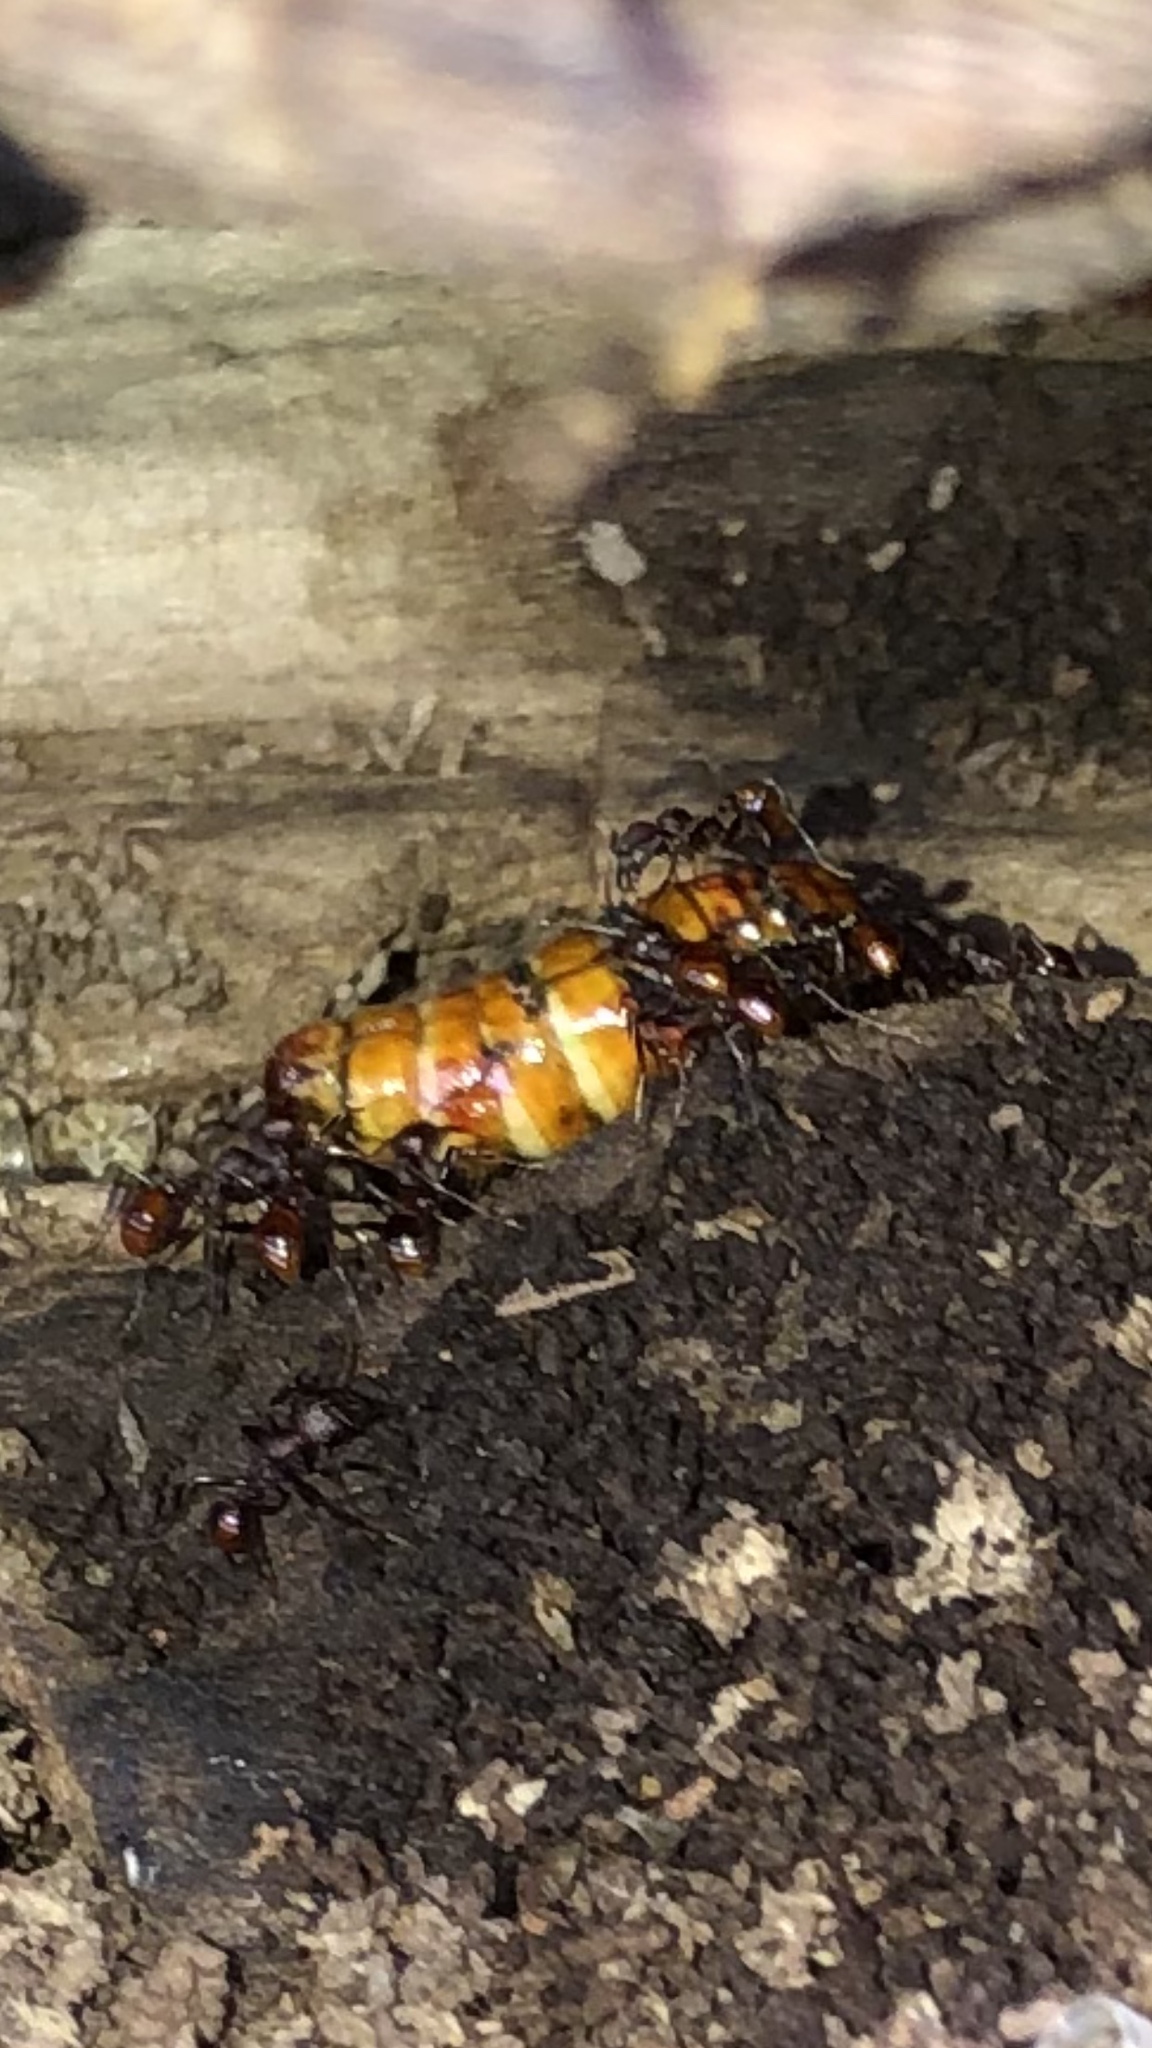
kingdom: Animalia
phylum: Arthropoda
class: Insecta
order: Hymenoptera
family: Formicidae
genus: Aphaenogaster
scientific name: Aphaenogaster tennesseensis
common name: Tennessee thread-waisted ant
